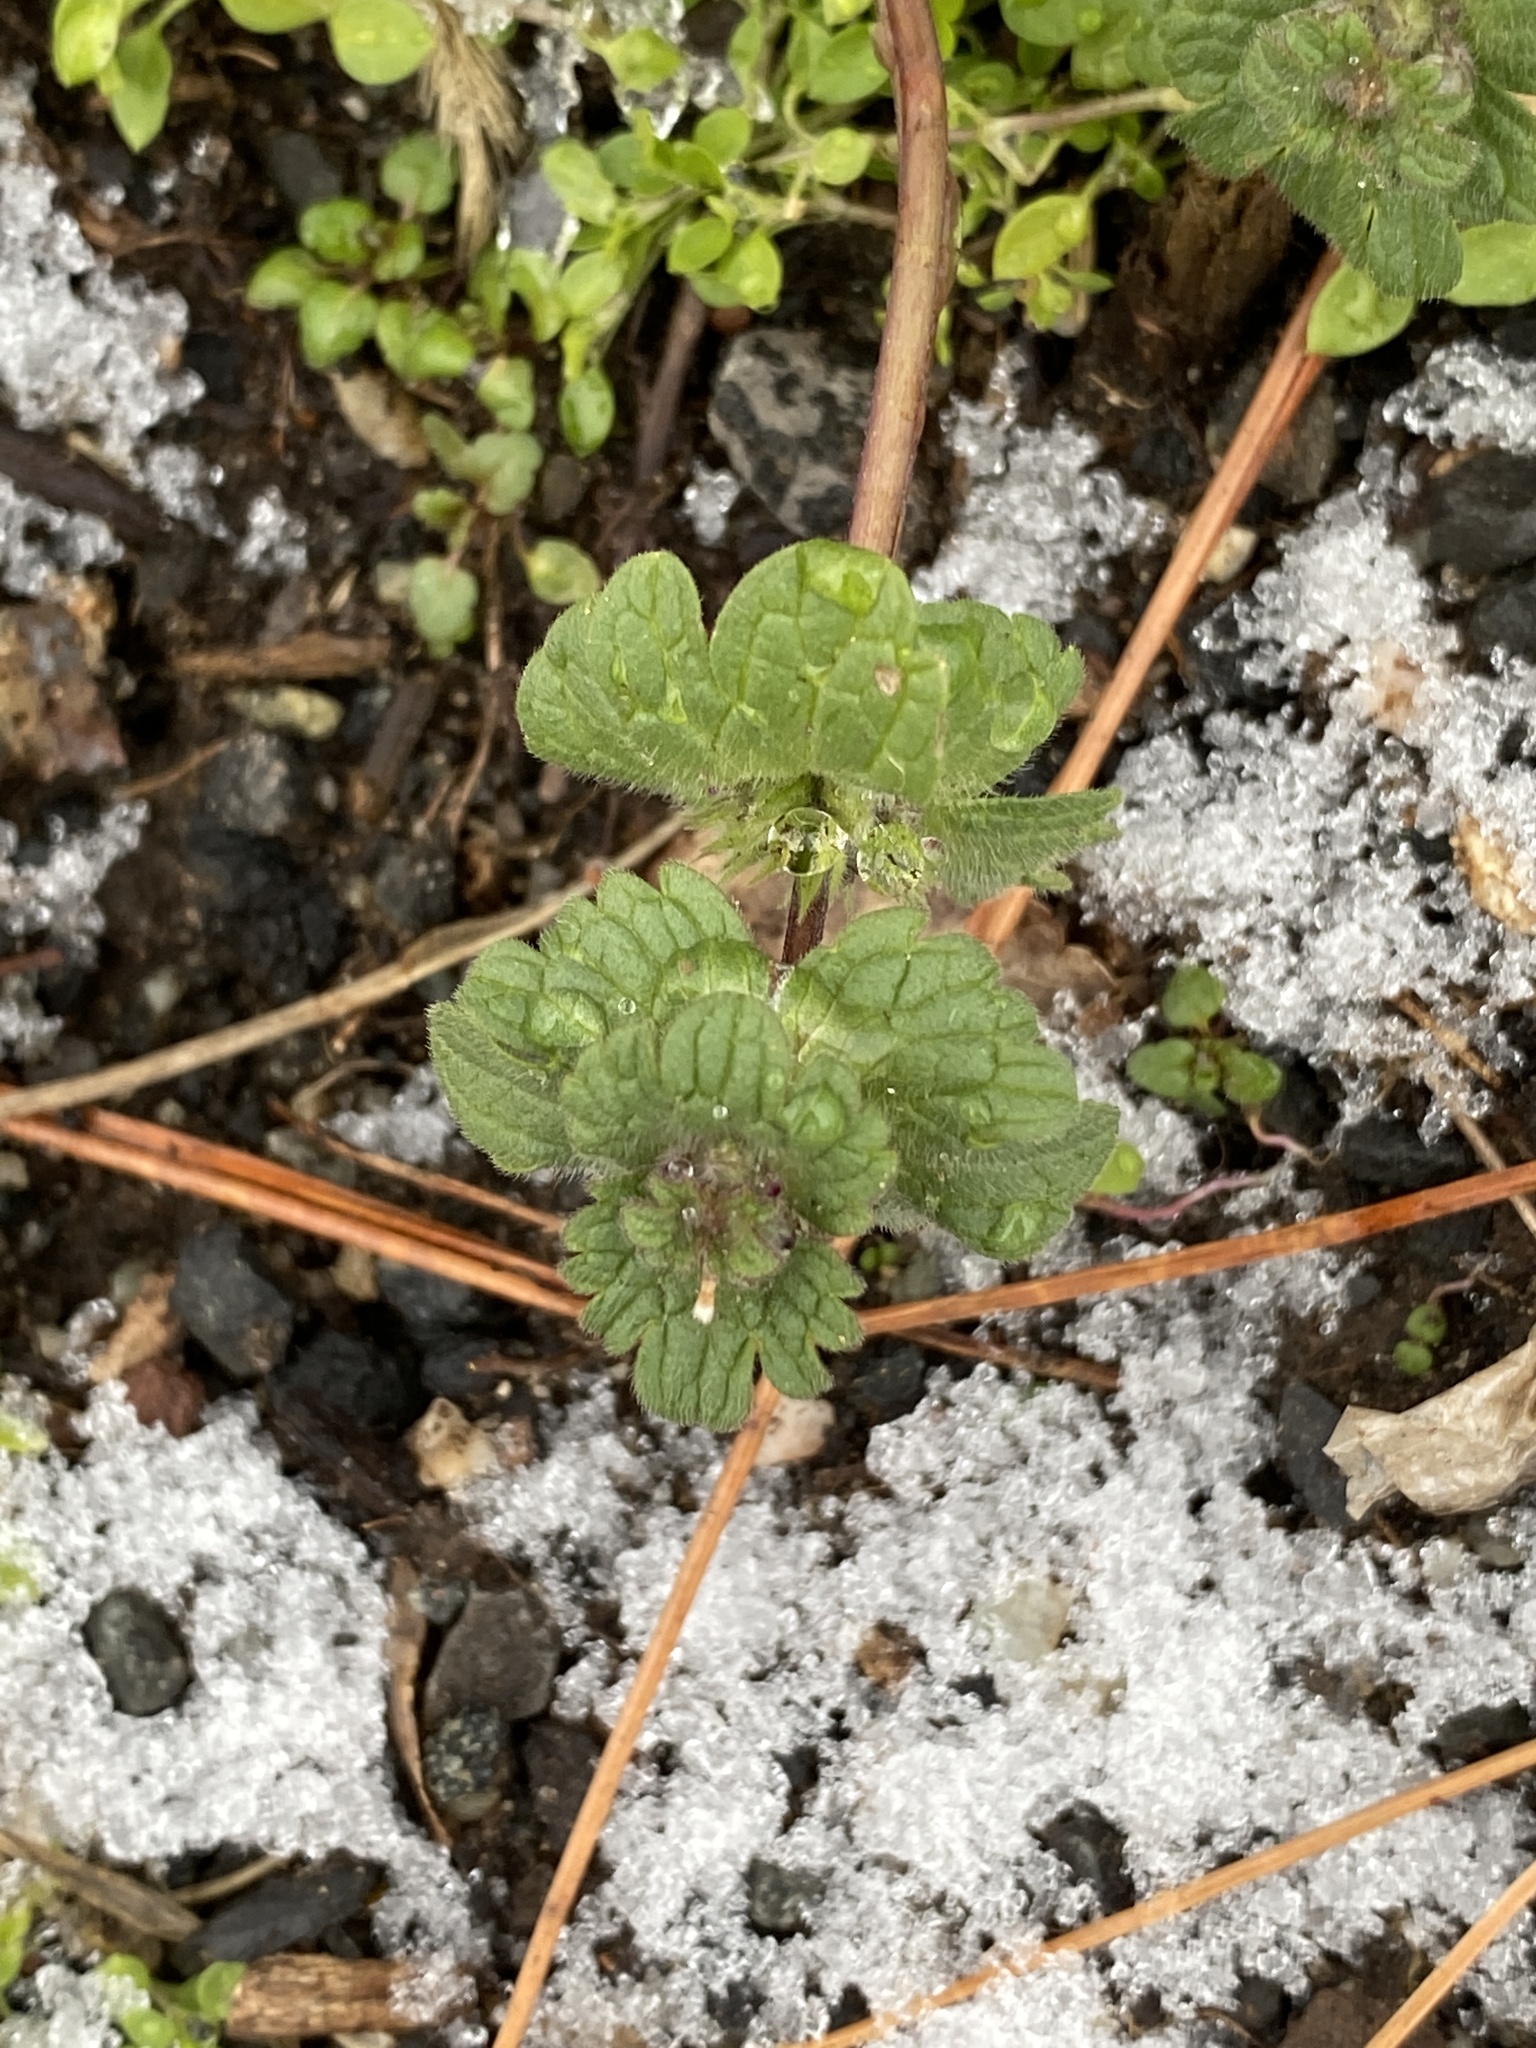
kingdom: Plantae
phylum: Tracheophyta
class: Magnoliopsida
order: Lamiales
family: Lamiaceae
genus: Lamium
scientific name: Lamium amplexicaule
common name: Henbit dead-nettle
